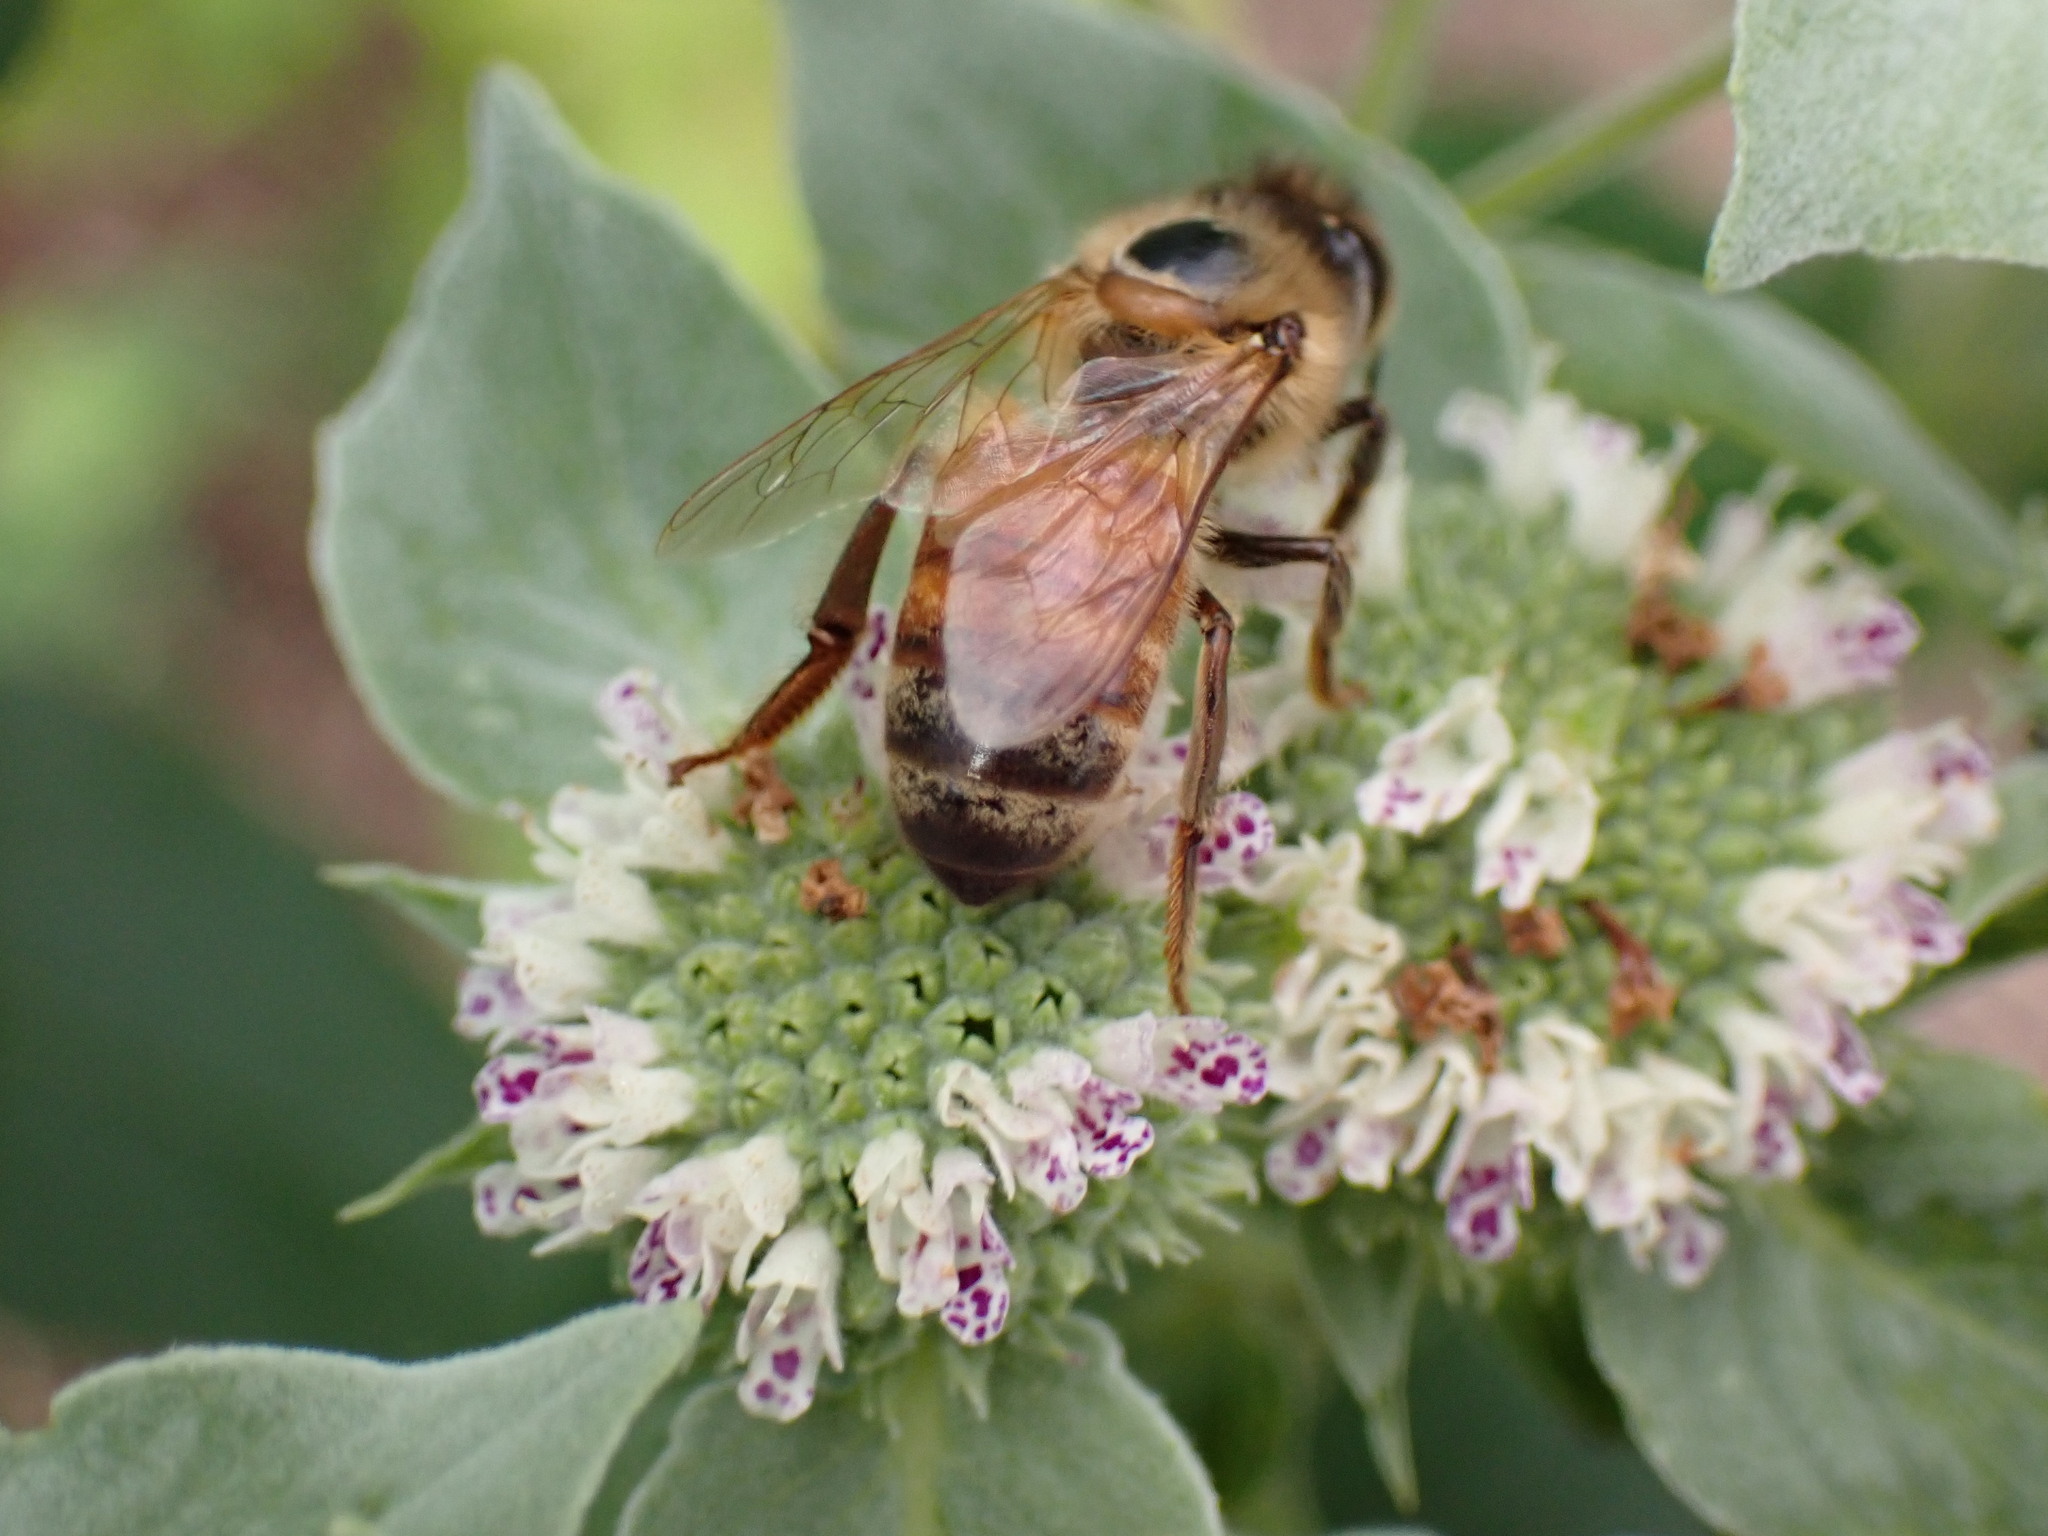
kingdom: Animalia
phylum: Arthropoda
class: Insecta
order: Hymenoptera
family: Apidae
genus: Apis
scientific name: Apis mellifera
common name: Honey bee
